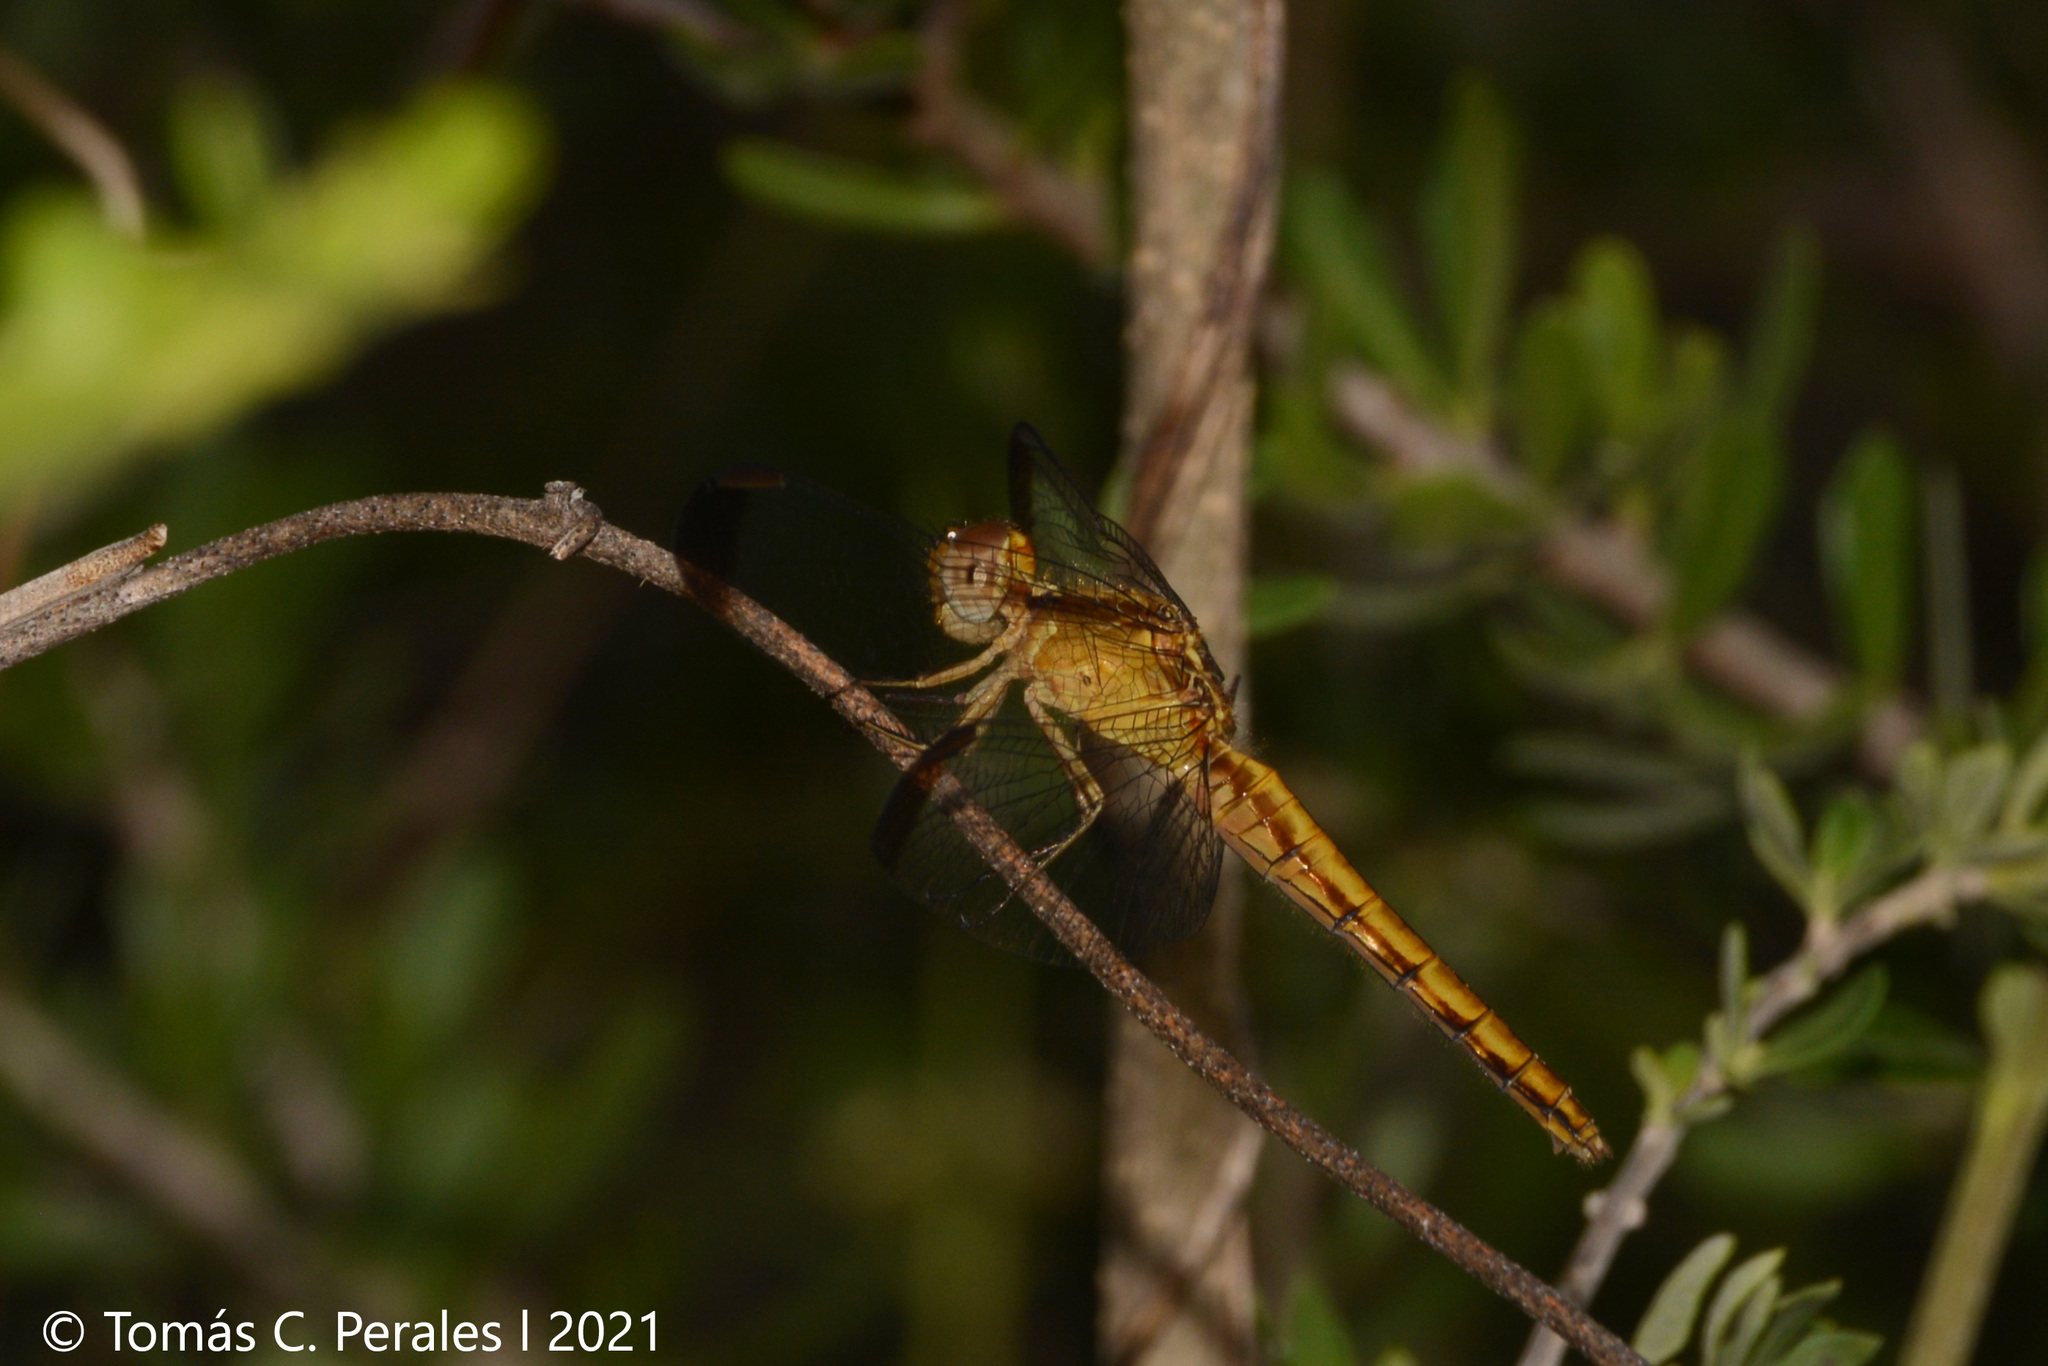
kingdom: Animalia
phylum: Arthropoda
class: Insecta
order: Odonata
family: Libellulidae
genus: Erythrodiplax
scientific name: Erythrodiplax atroterminata
